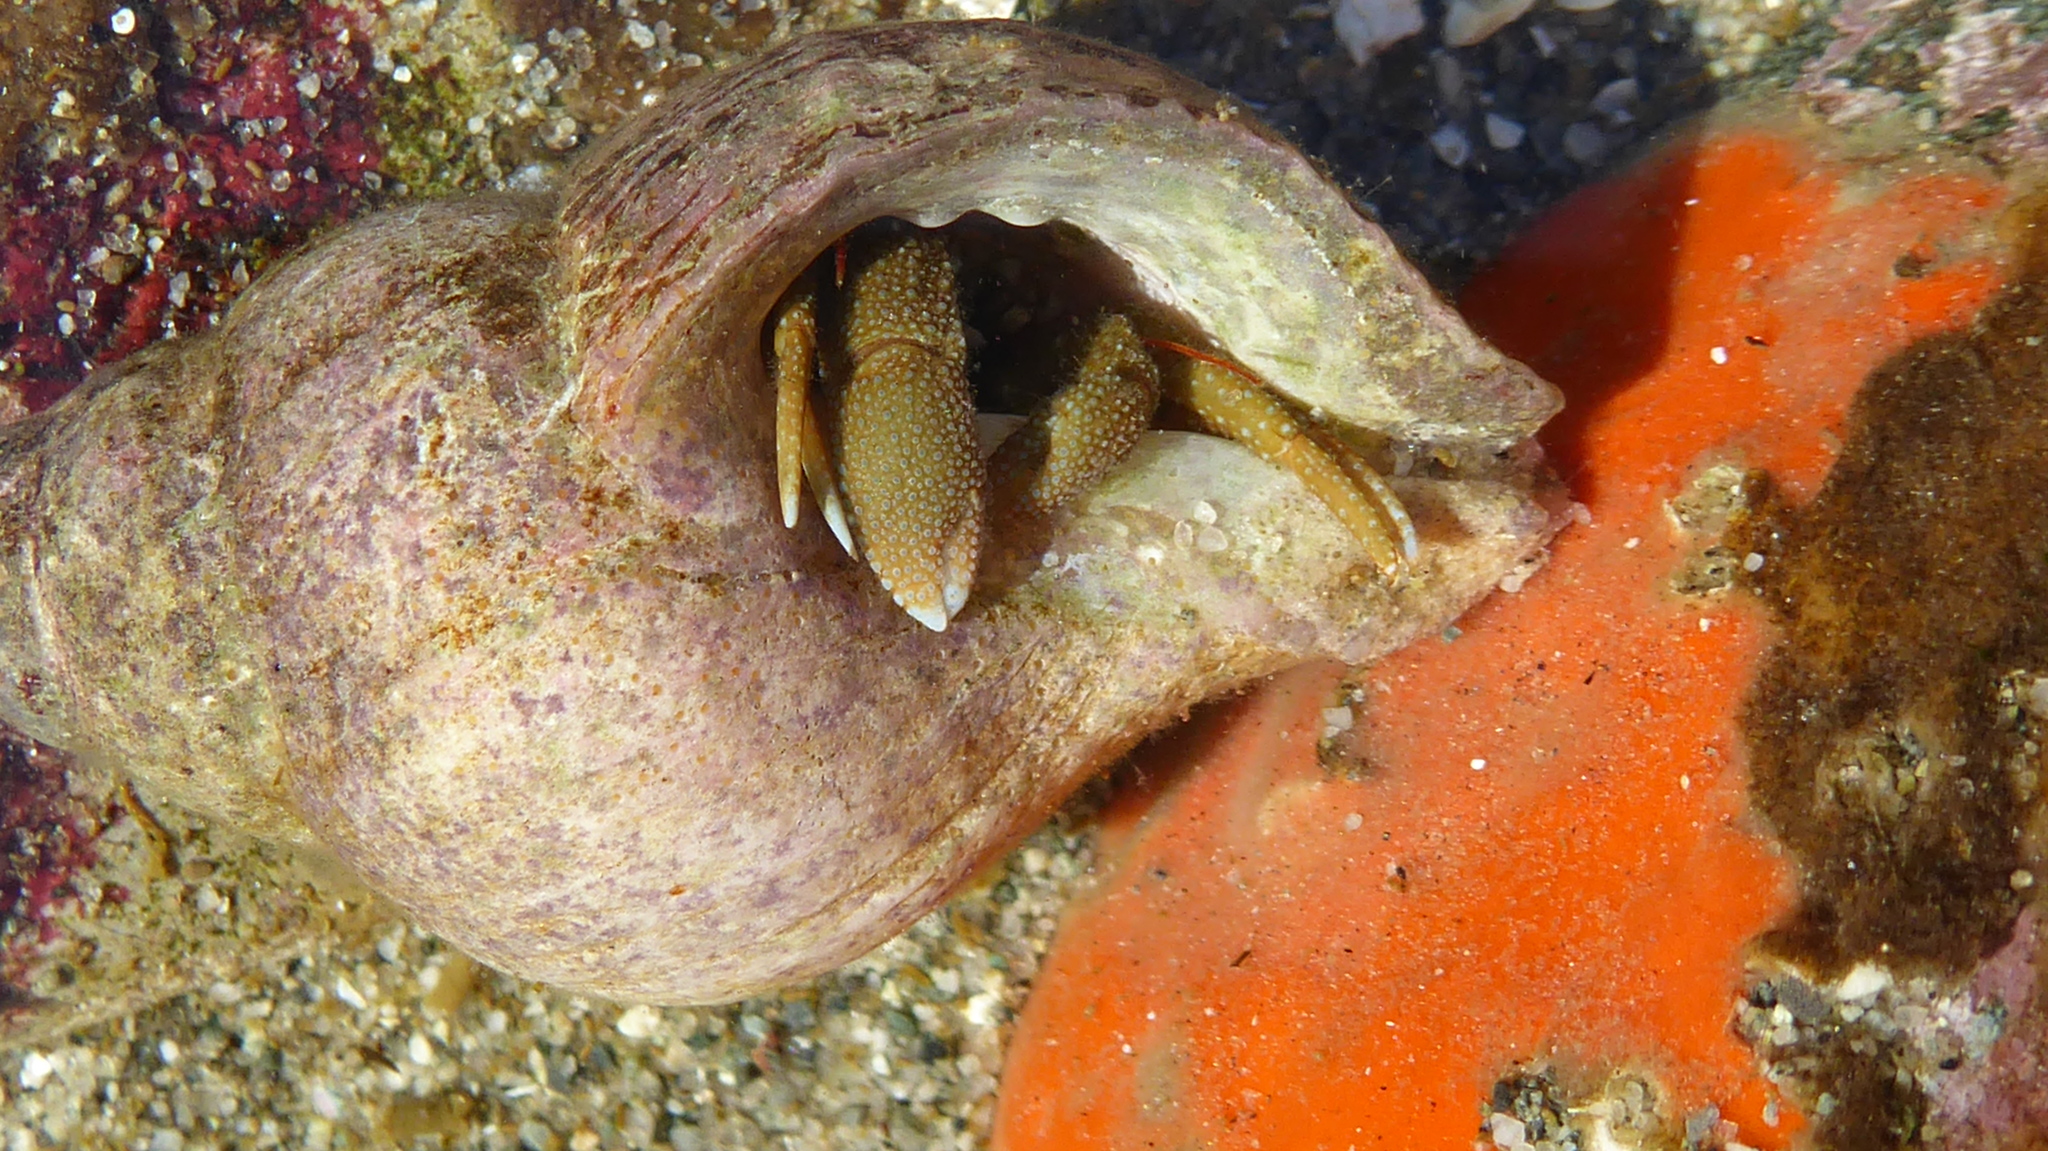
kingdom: Animalia
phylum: Arthropoda
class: Malacostraca
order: Decapoda
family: Paguridae
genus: Pagurus
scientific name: Pagurus granosimanus
